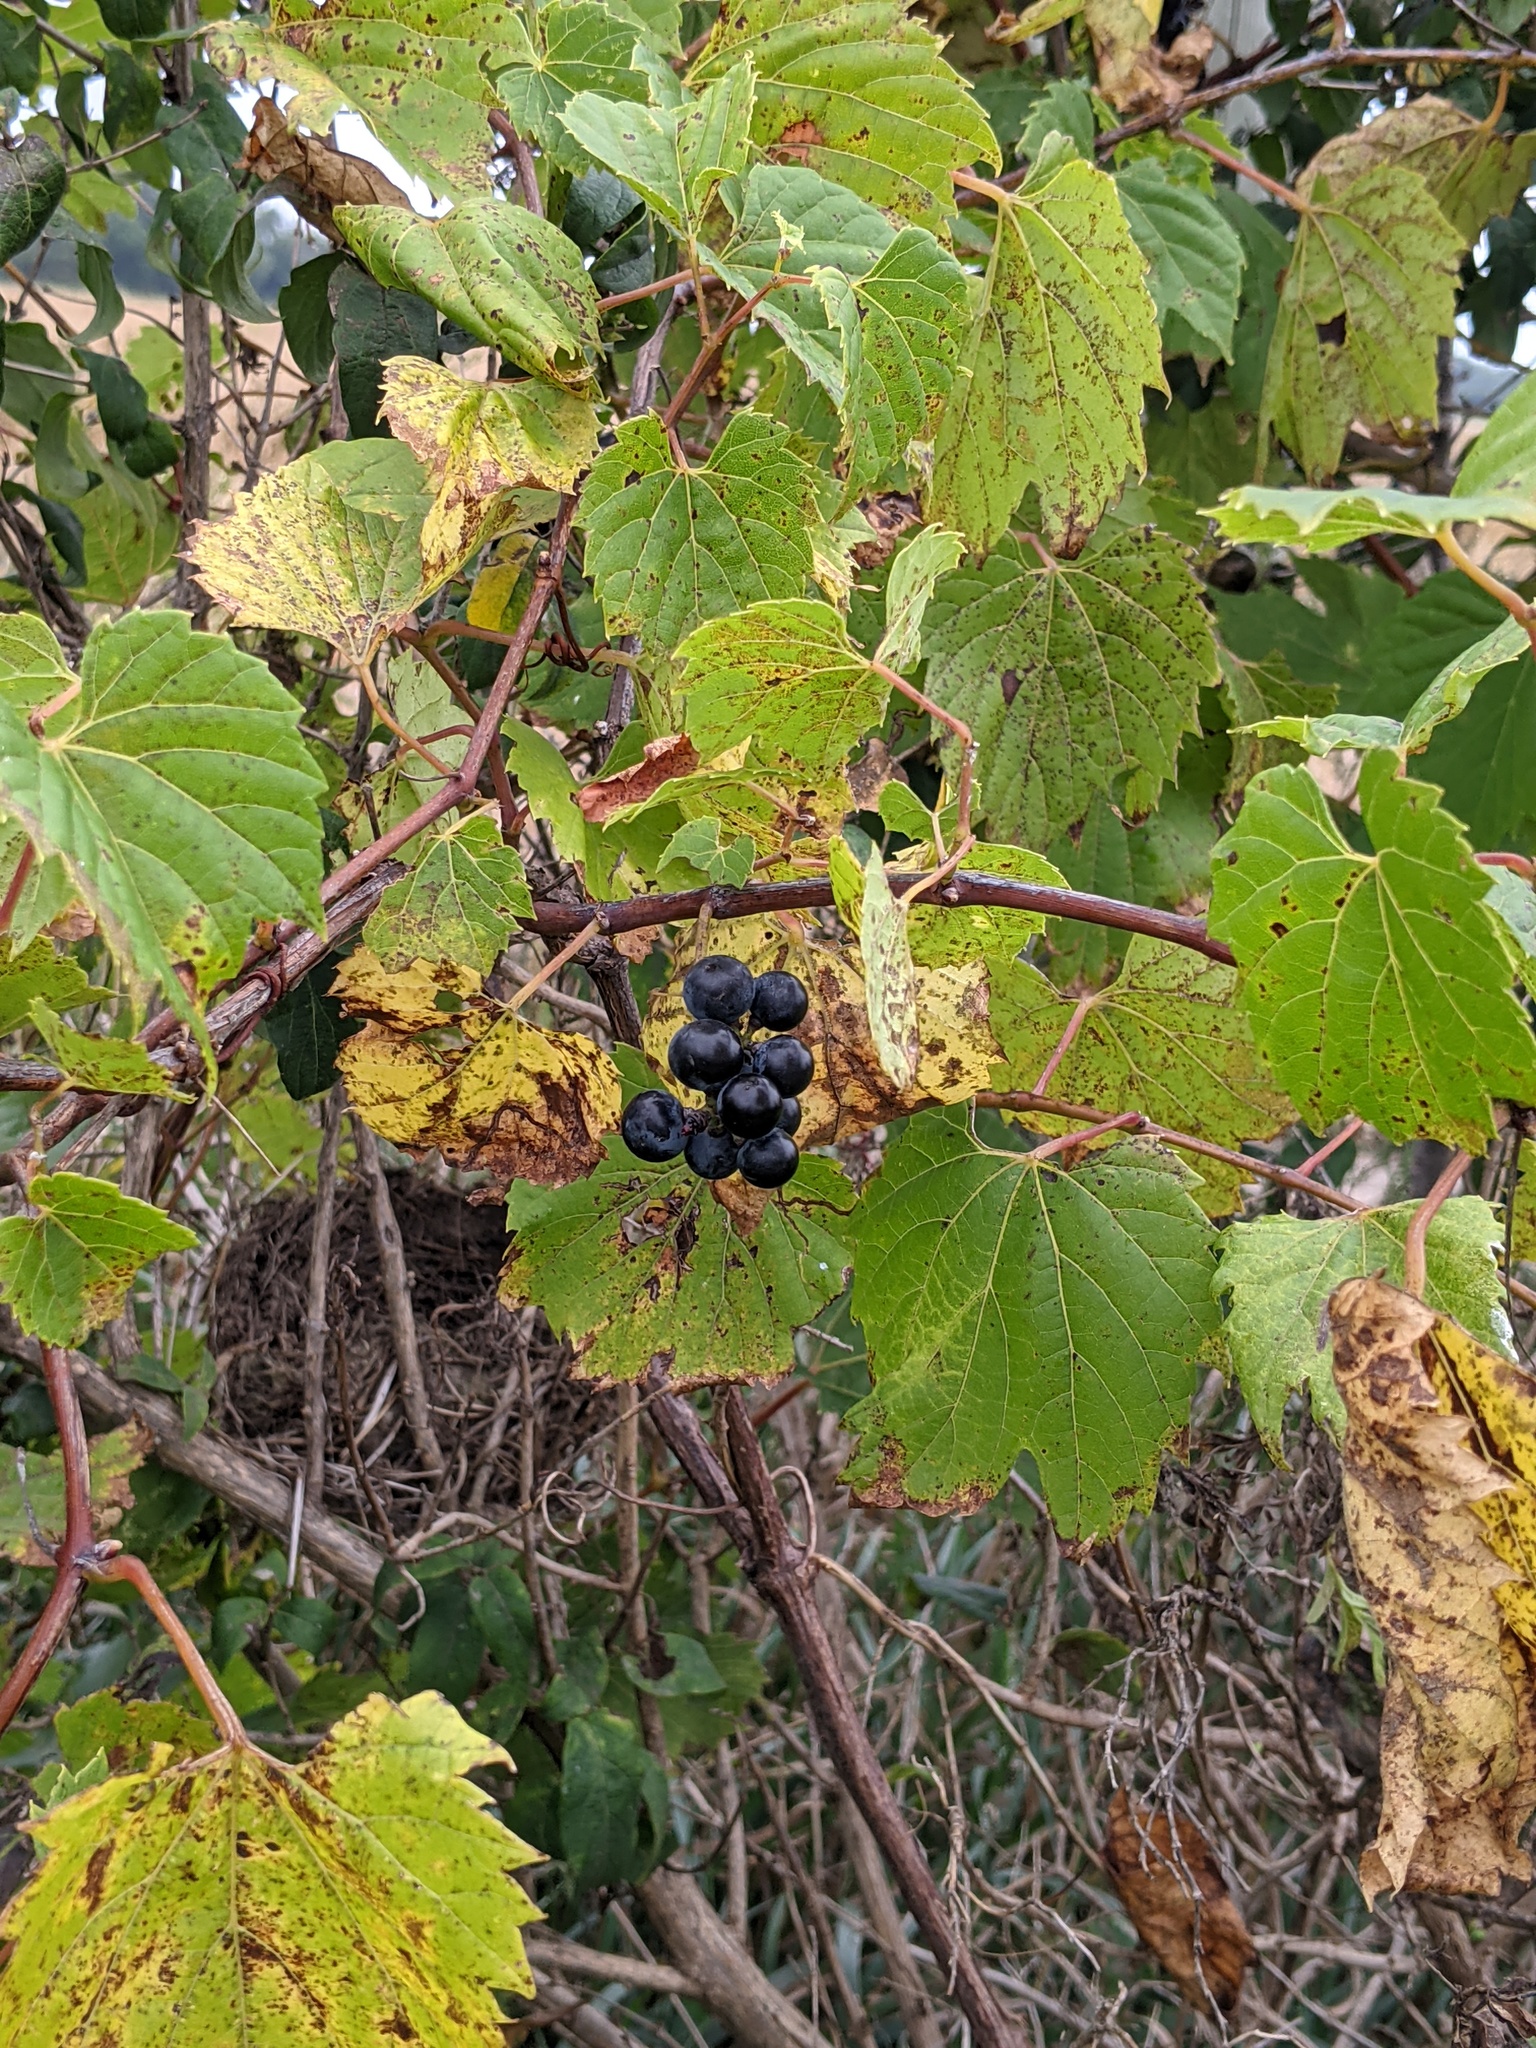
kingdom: Plantae
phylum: Tracheophyta
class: Magnoliopsida
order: Vitales
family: Vitaceae
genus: Vitis
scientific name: Vitis riparia
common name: Frost grape
